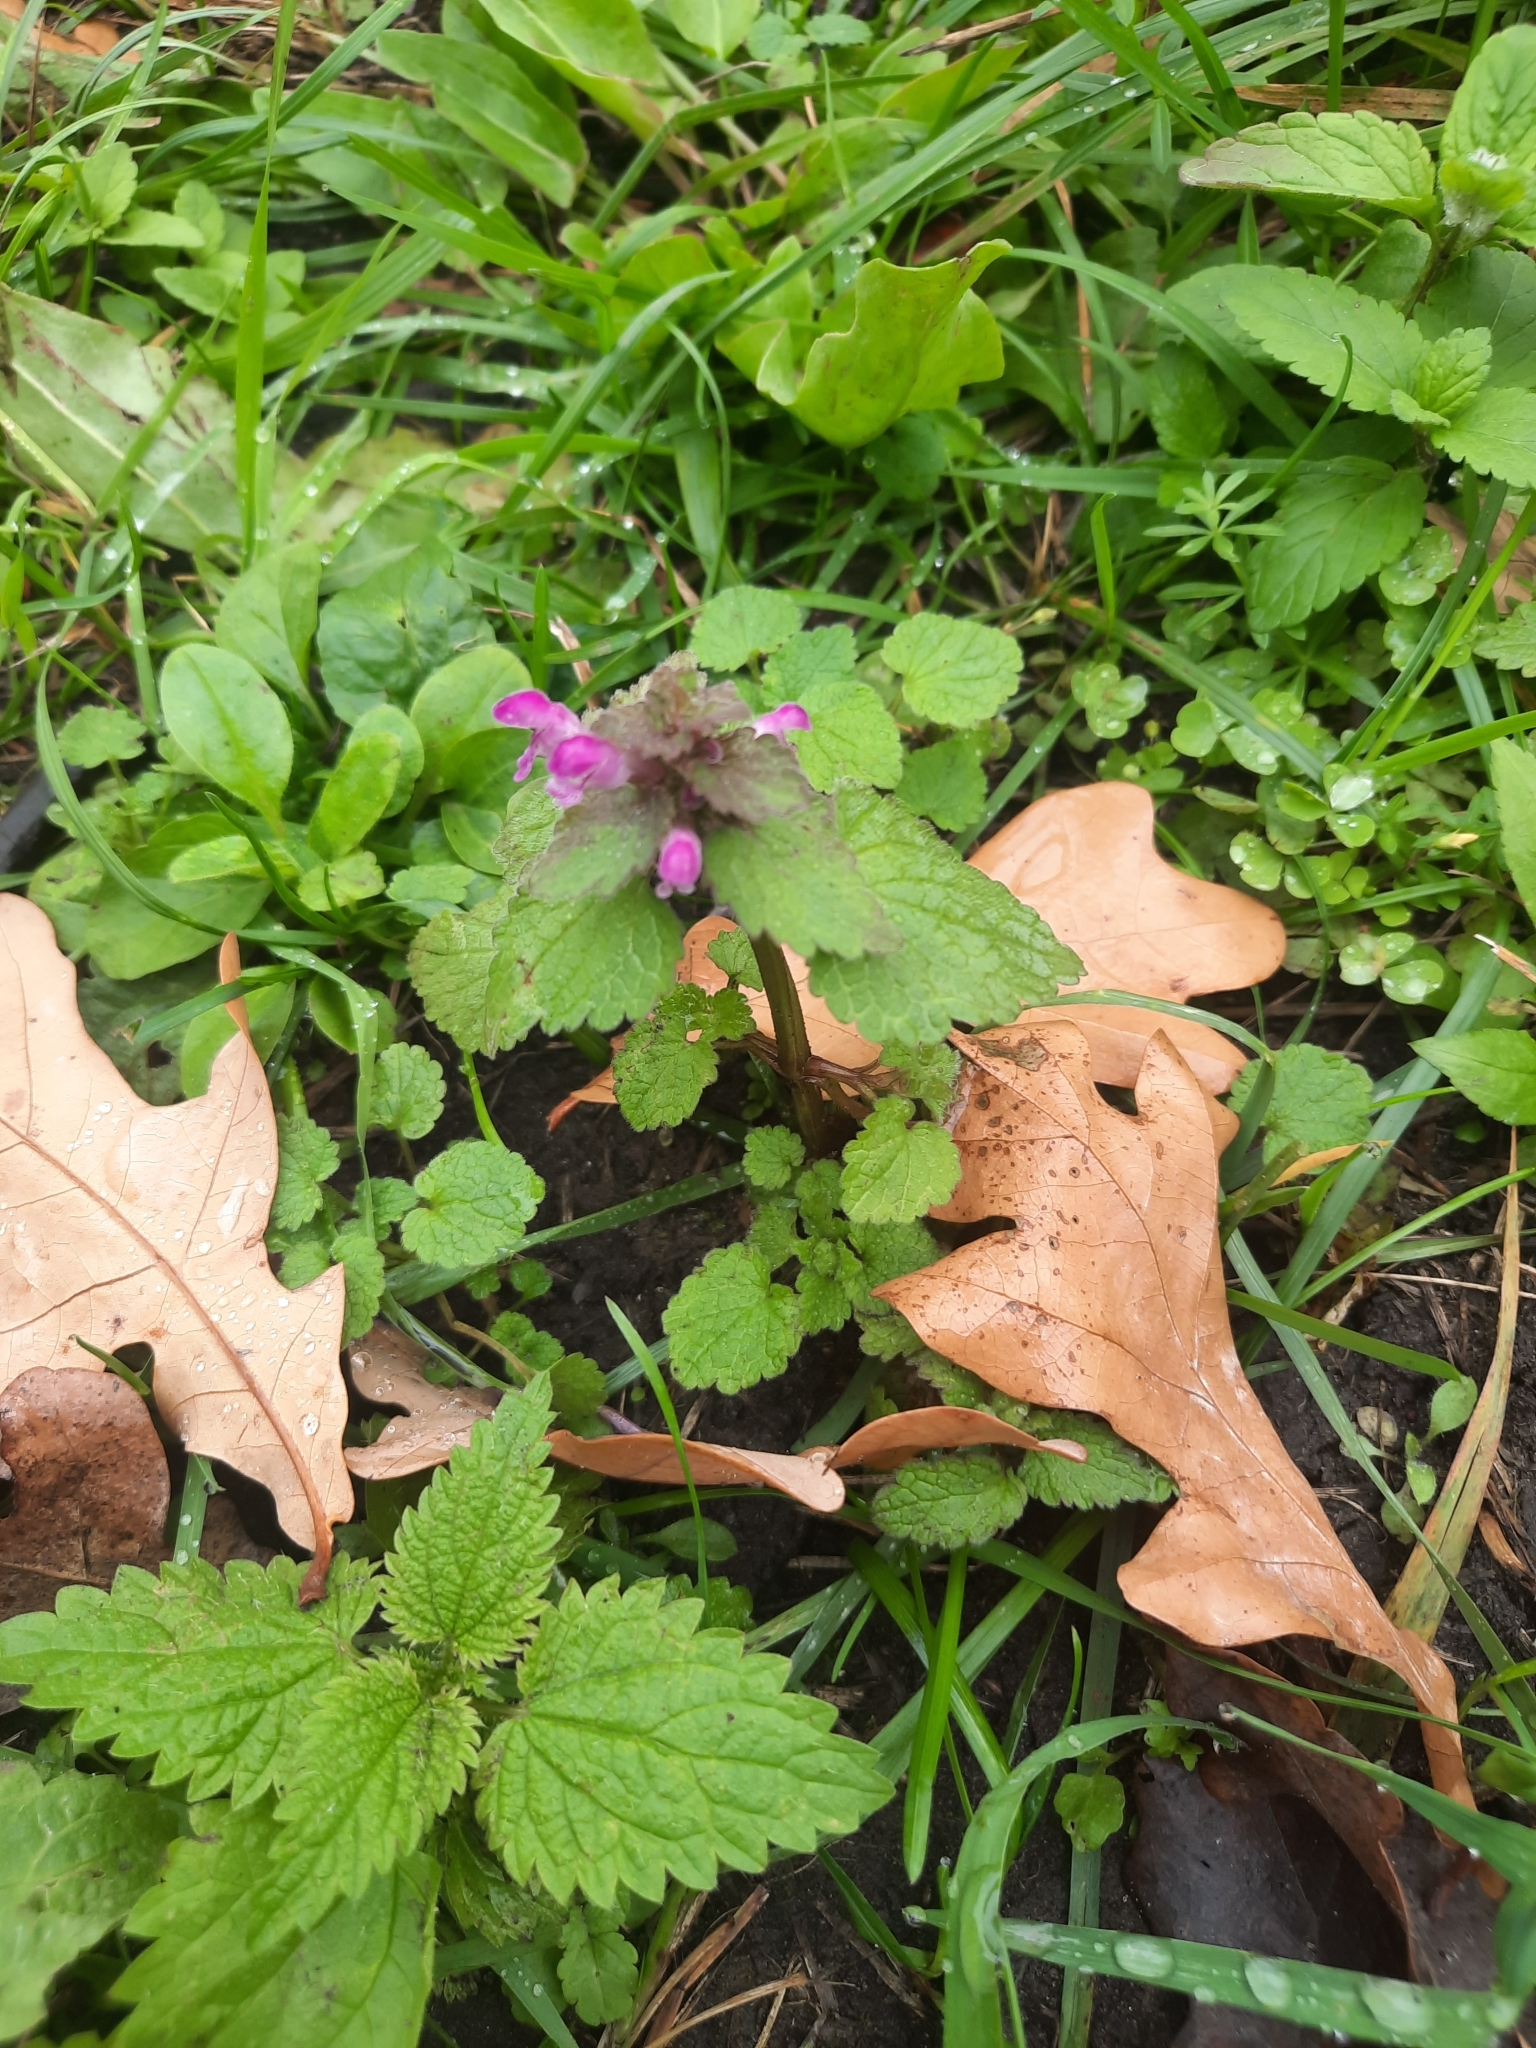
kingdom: Plantae
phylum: Tracheophyta
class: Magnoliopsida
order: Lamiales
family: Lamiaceae
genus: Lamium
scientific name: Lamium purpureum
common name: Red dead-nettle
